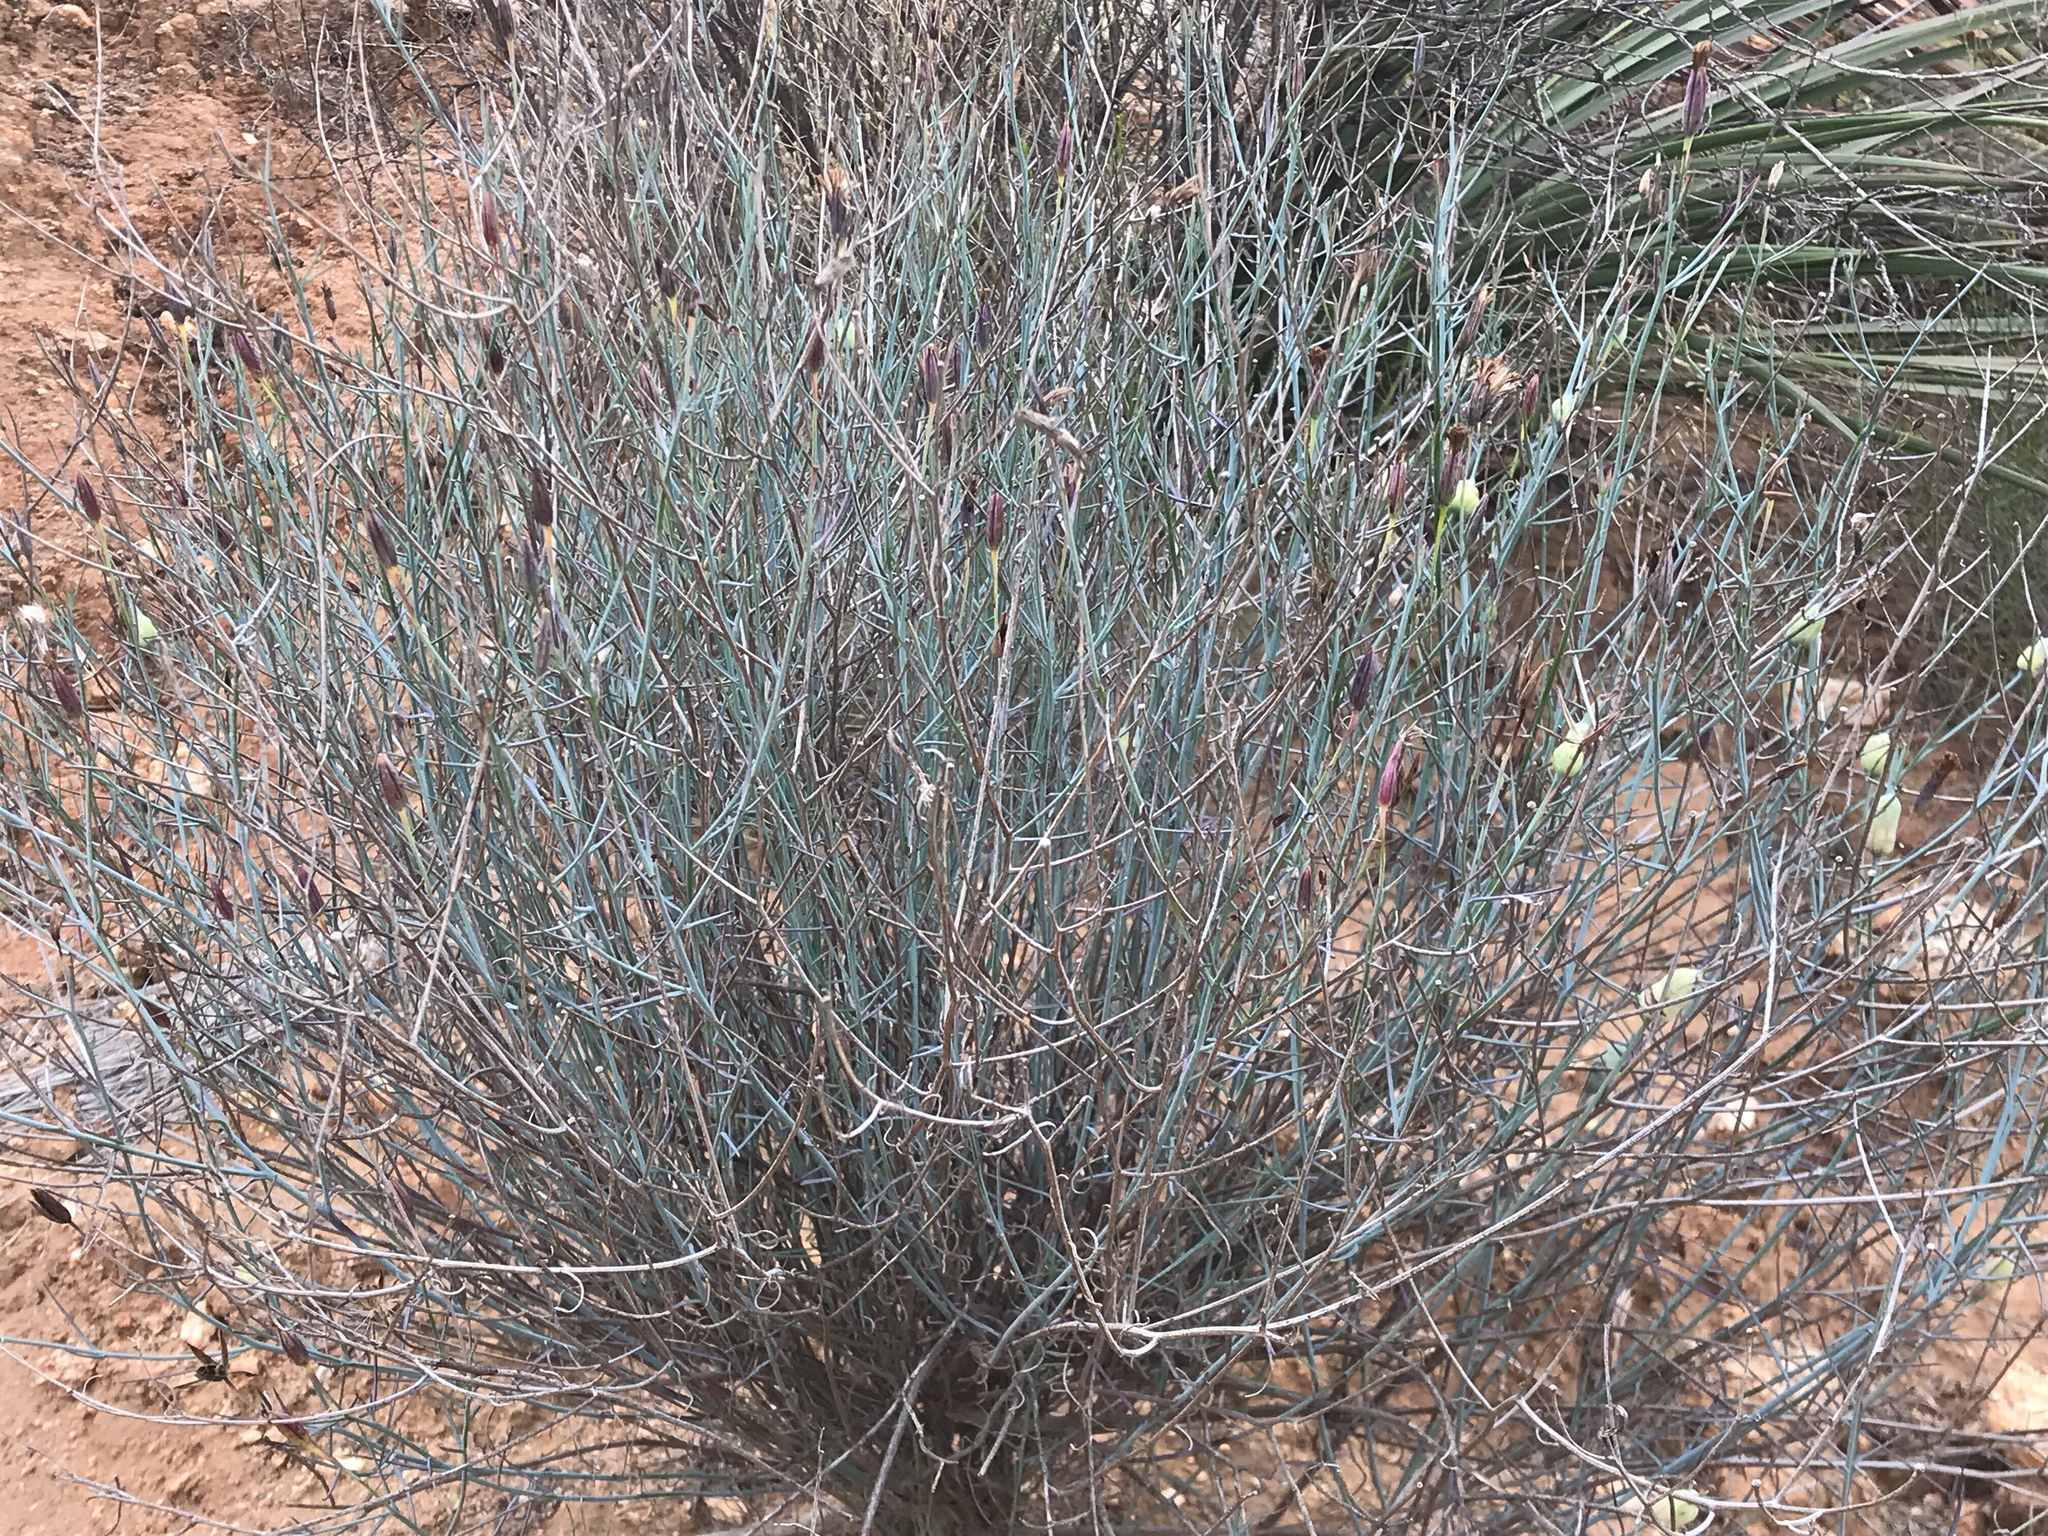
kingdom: Plantae
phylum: Tracheophyta
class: Magnoliopsida
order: Asterales
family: Asteraceae
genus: Porophyllum
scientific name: Porophyllum gracile
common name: Odora
